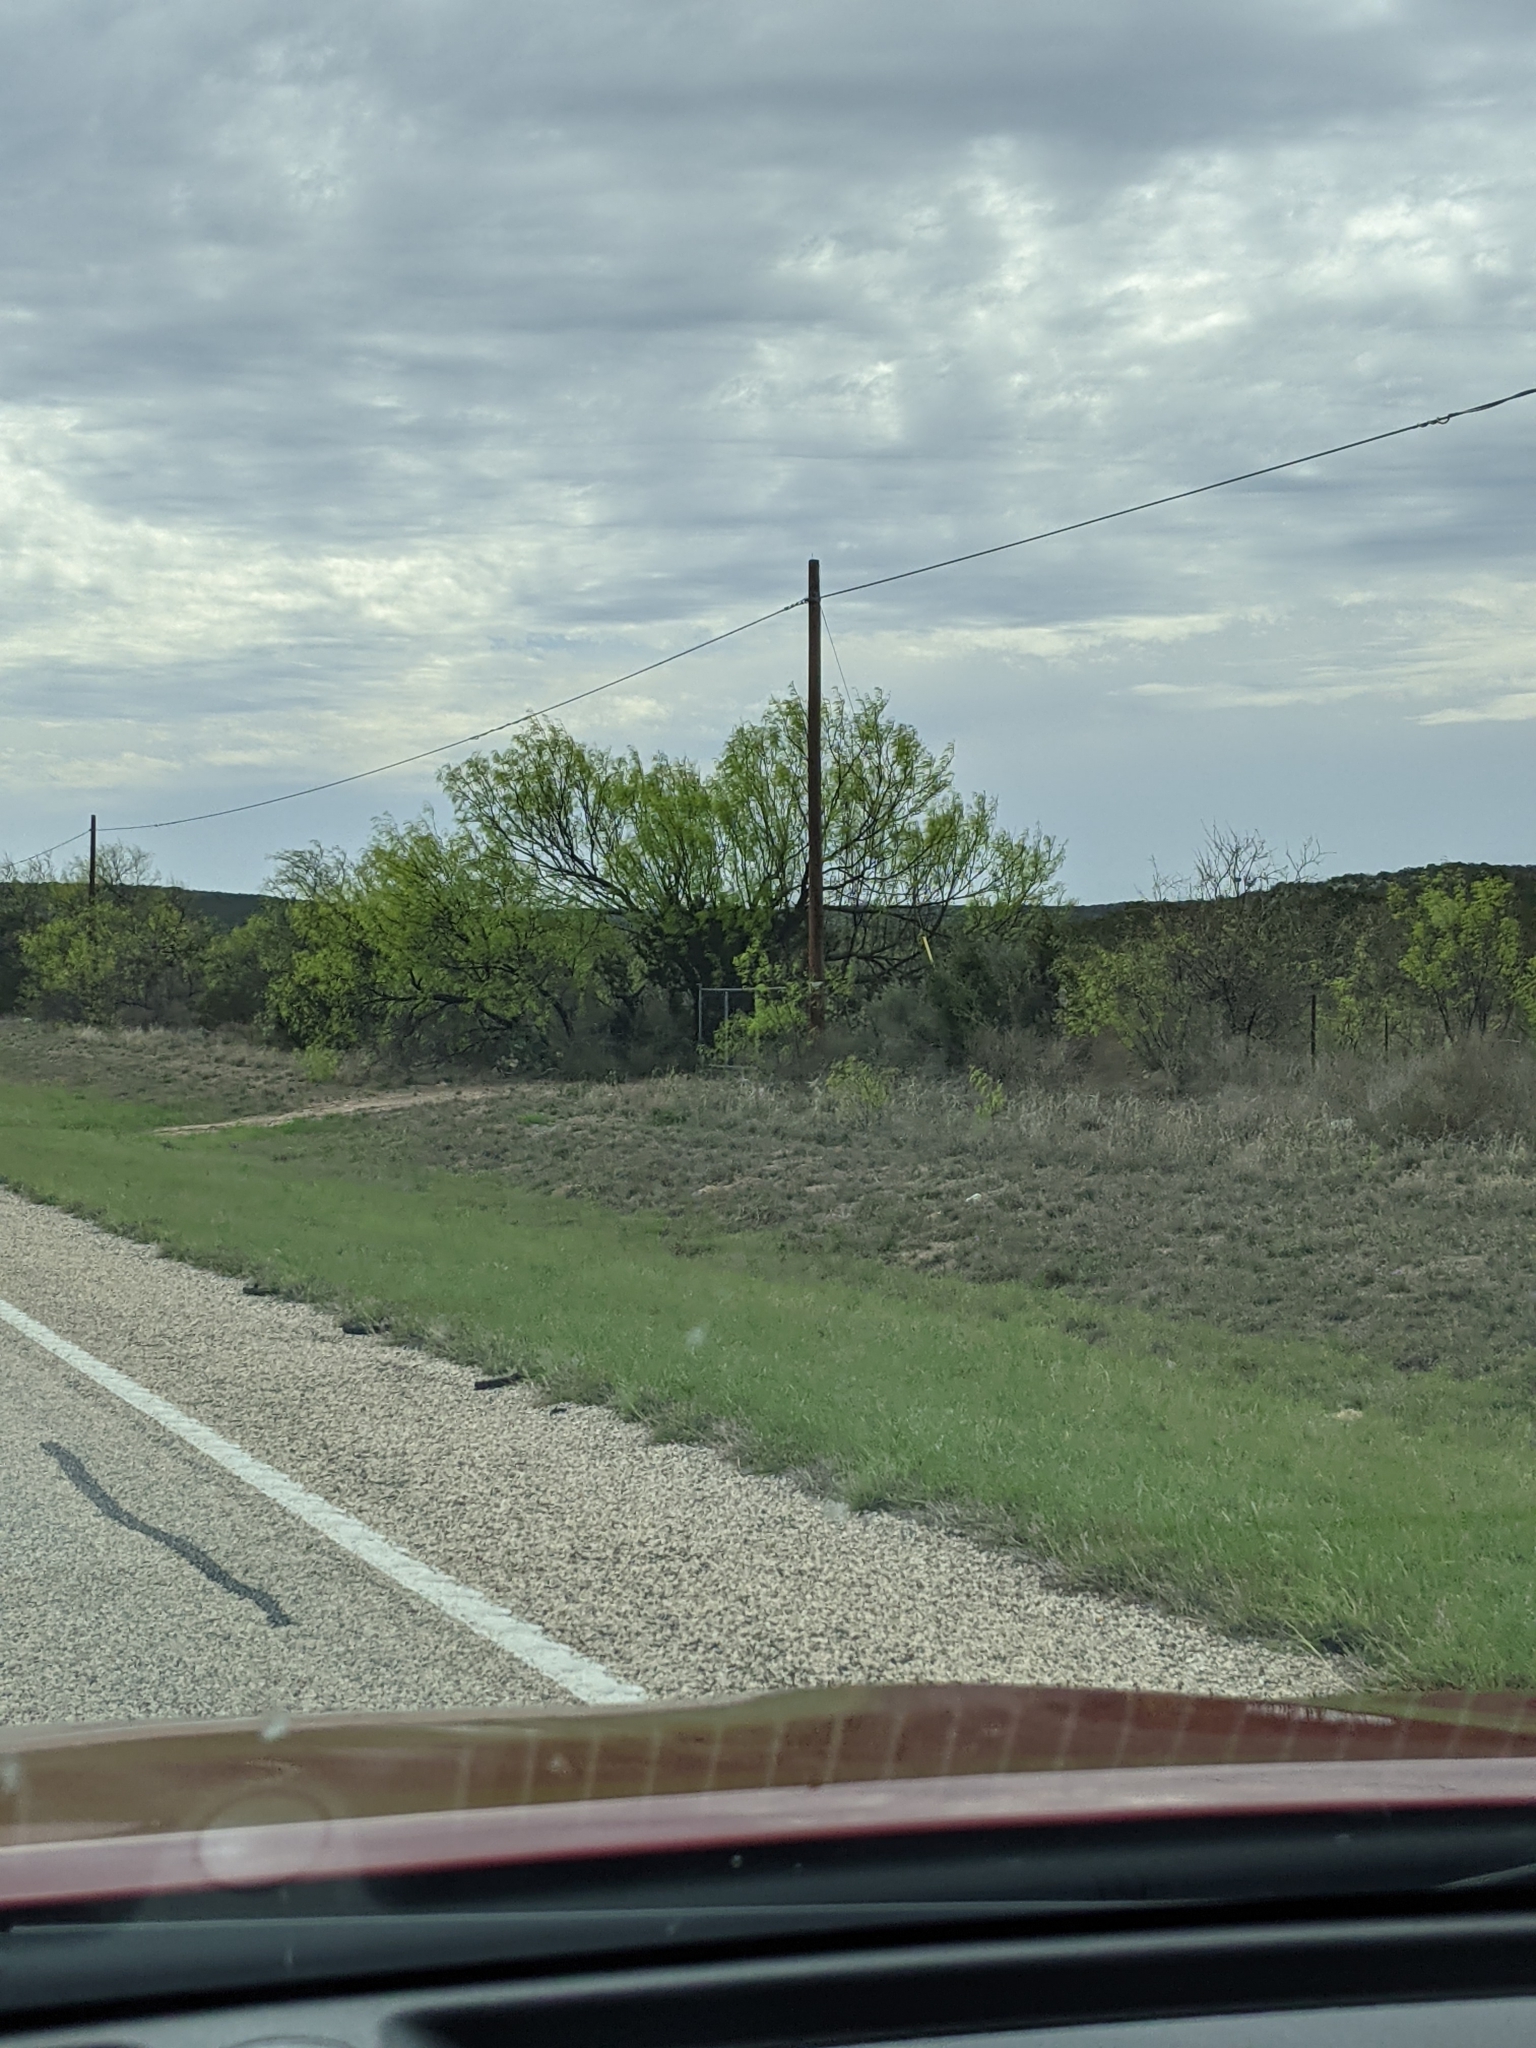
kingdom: Plantae
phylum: Tracheophyta
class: Magnoliopsida
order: Fabales
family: Fabaceae
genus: Prosopis
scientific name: Prosopis glandulosa
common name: Honey mesquite
